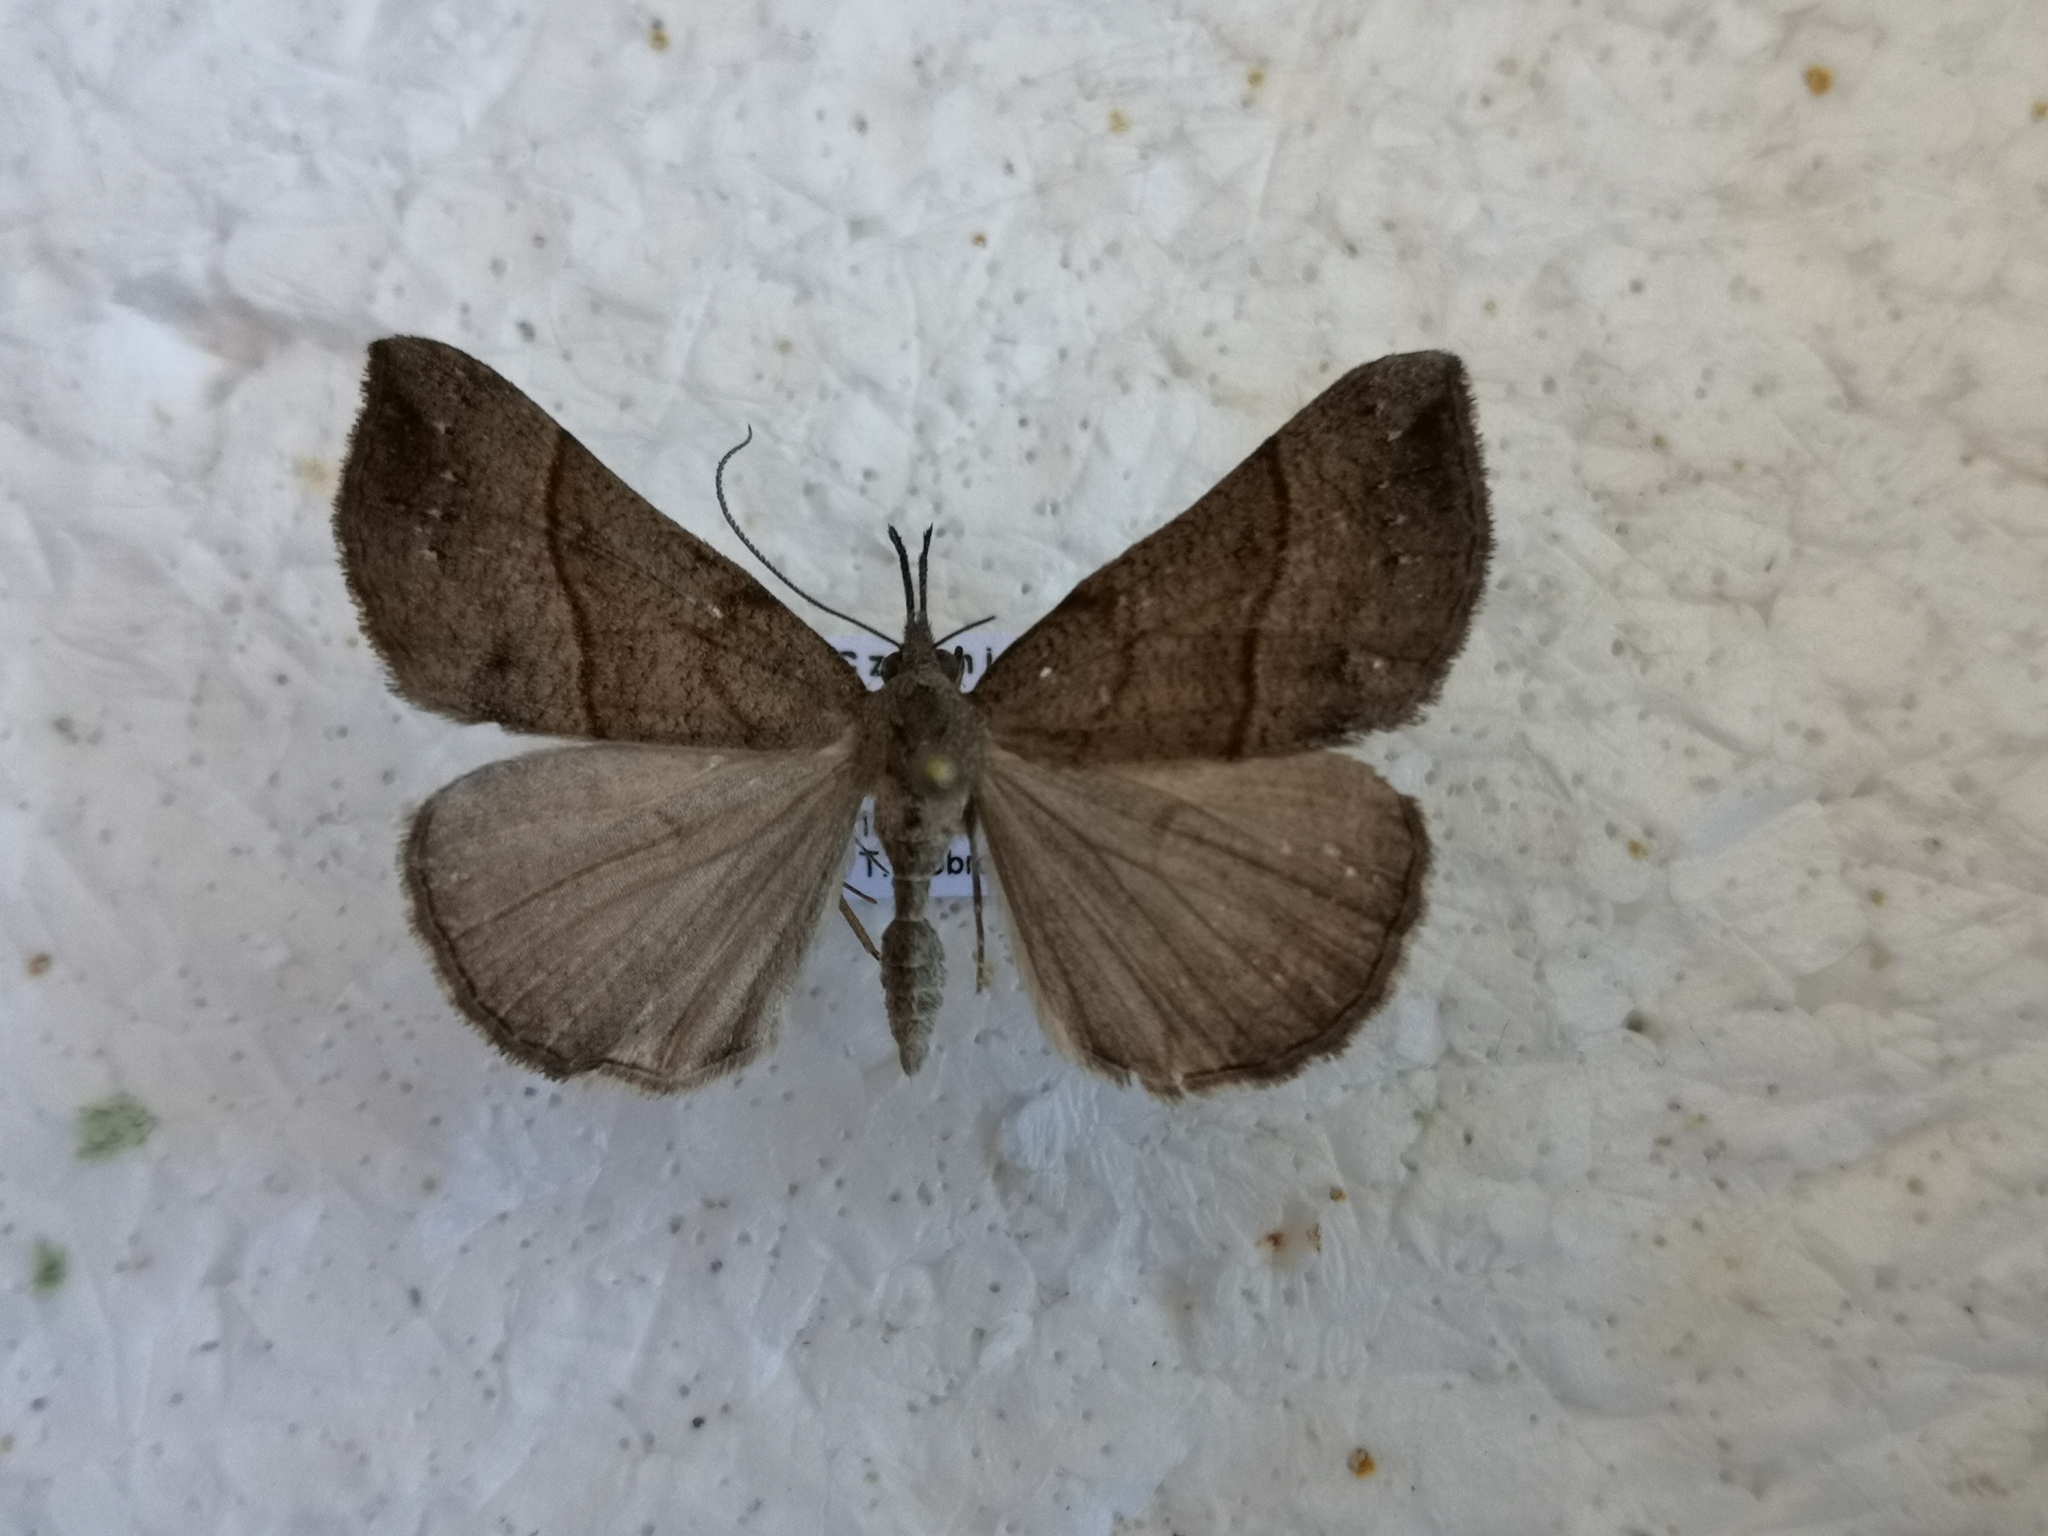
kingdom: Animalia
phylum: Arthropoda
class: Insecta
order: Lepidoptera
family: Erebidae
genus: Hypena
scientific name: Hypena proboscidalis
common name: Snout
